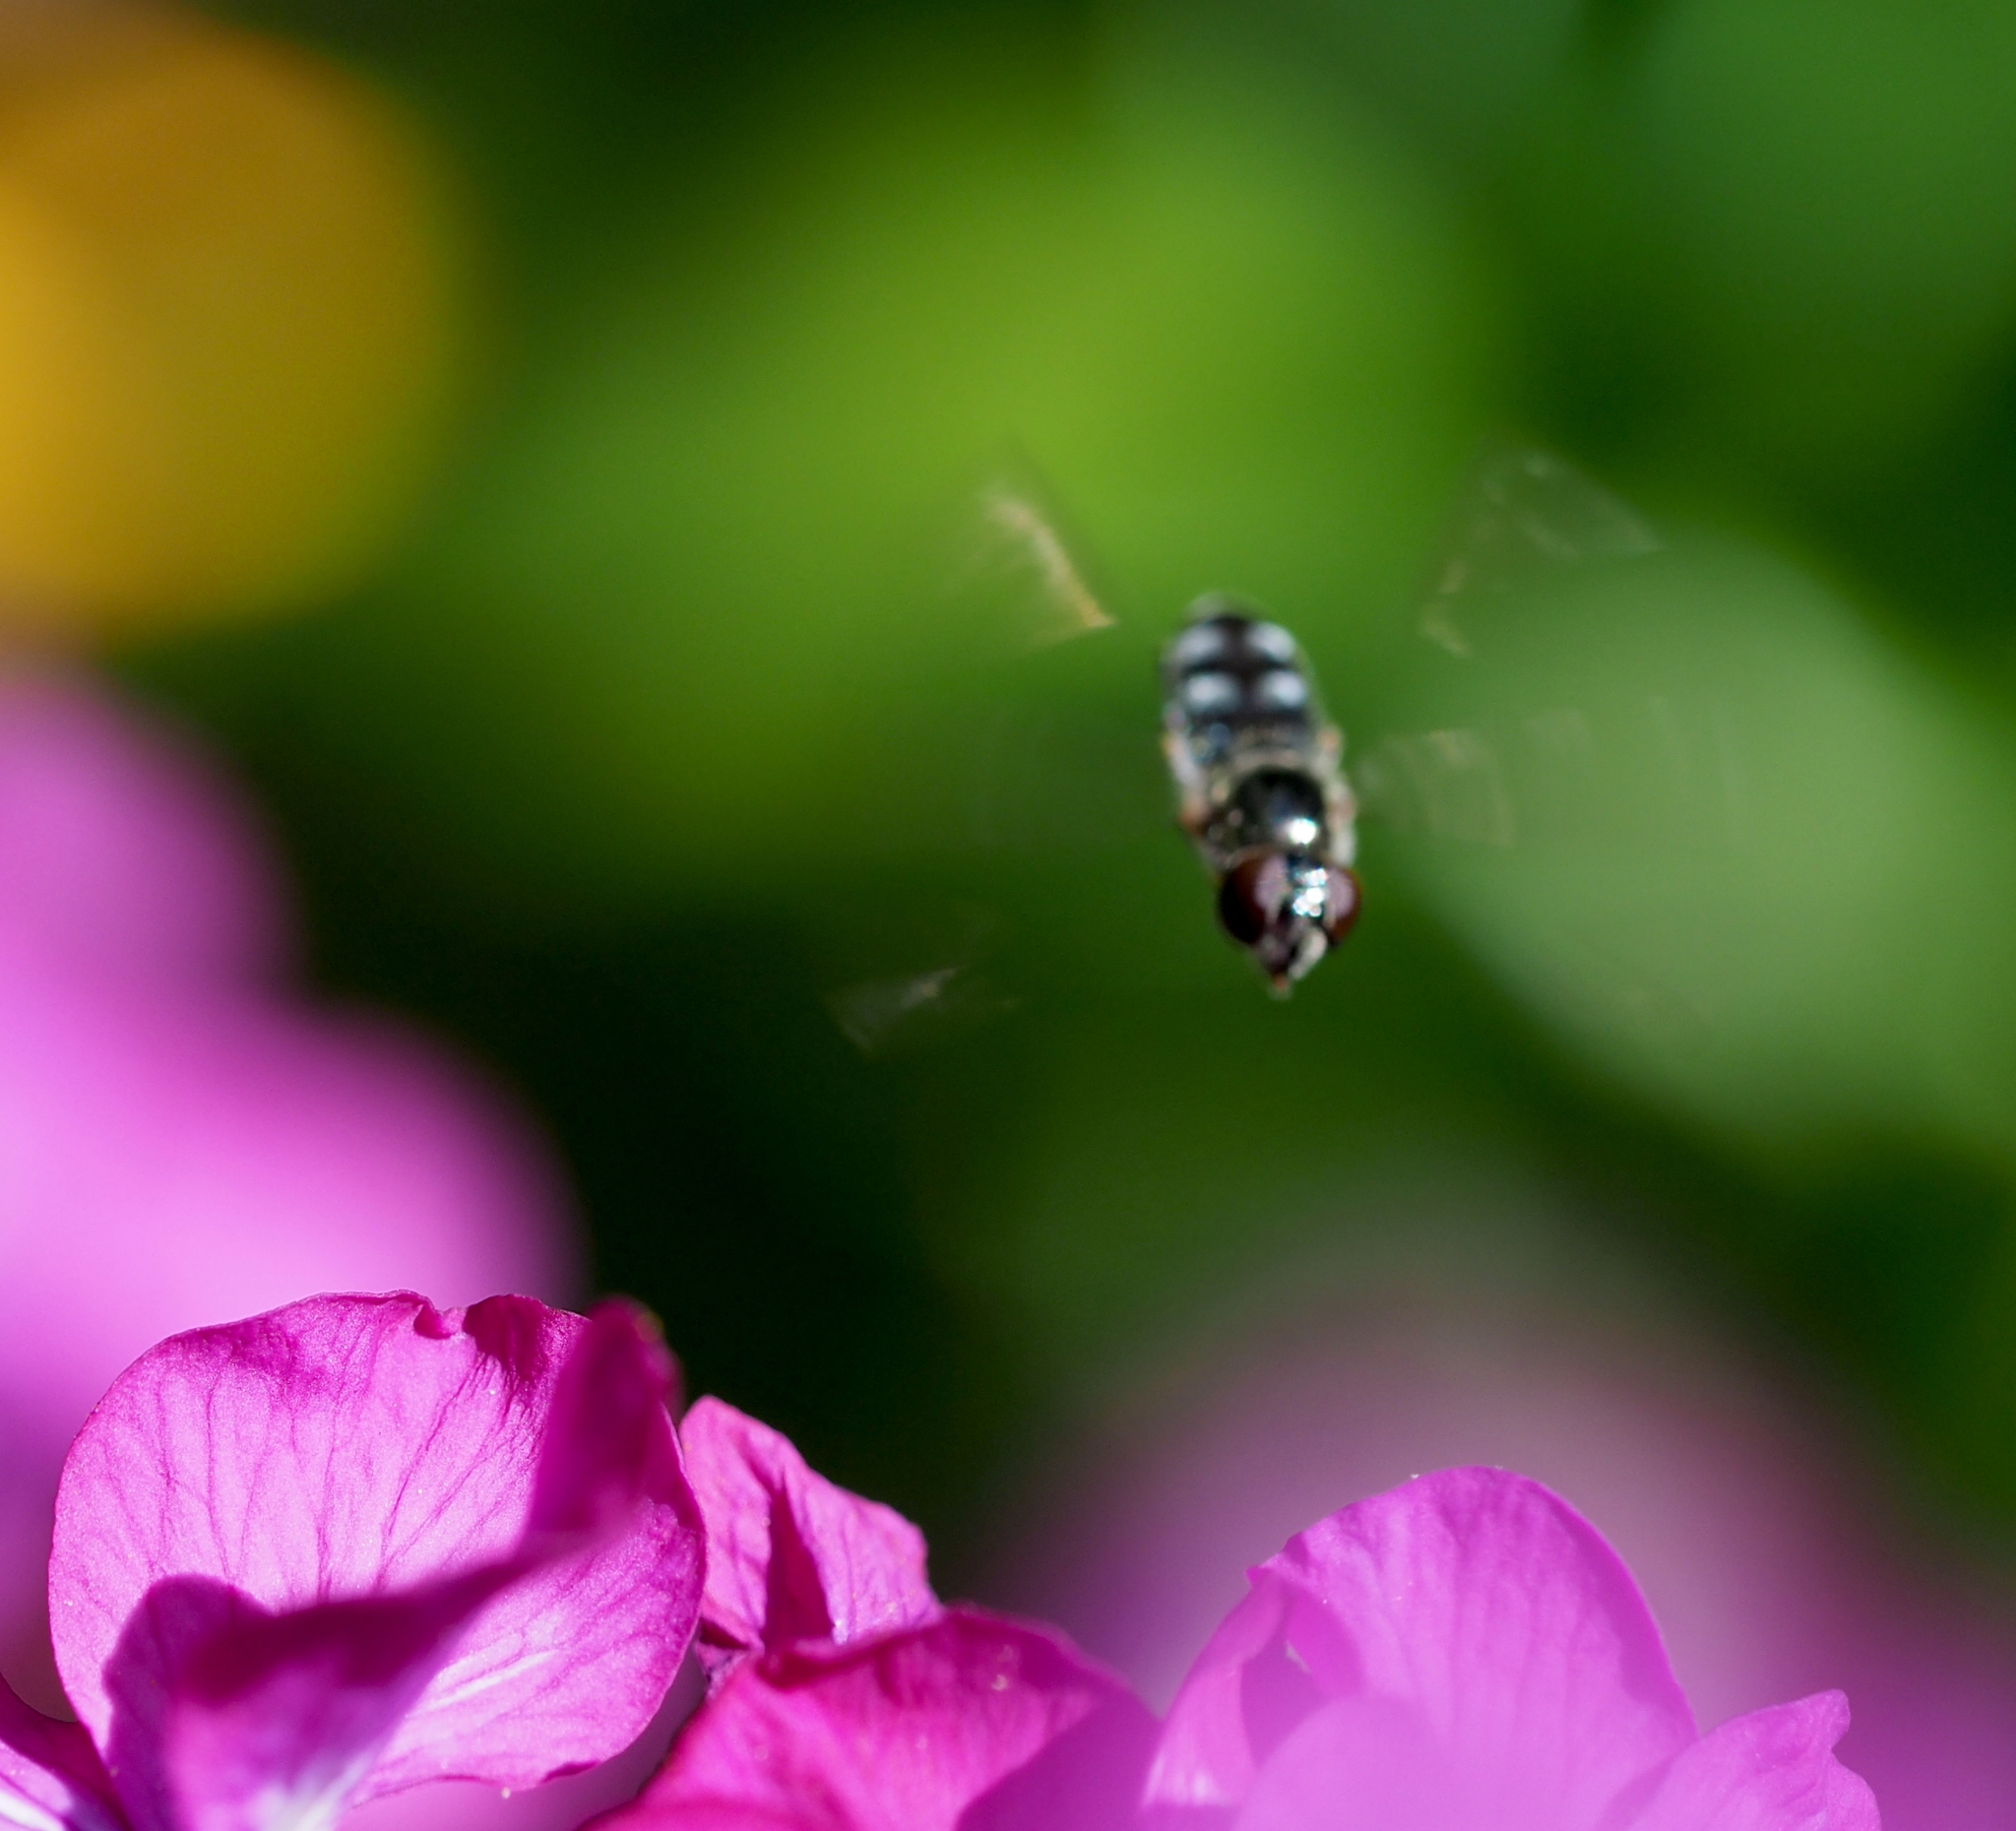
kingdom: Animalia
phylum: Arthropoda
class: Insecta
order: Diptera
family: Syrphidae
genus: Platycheirus
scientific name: Platycheirus albimanus
